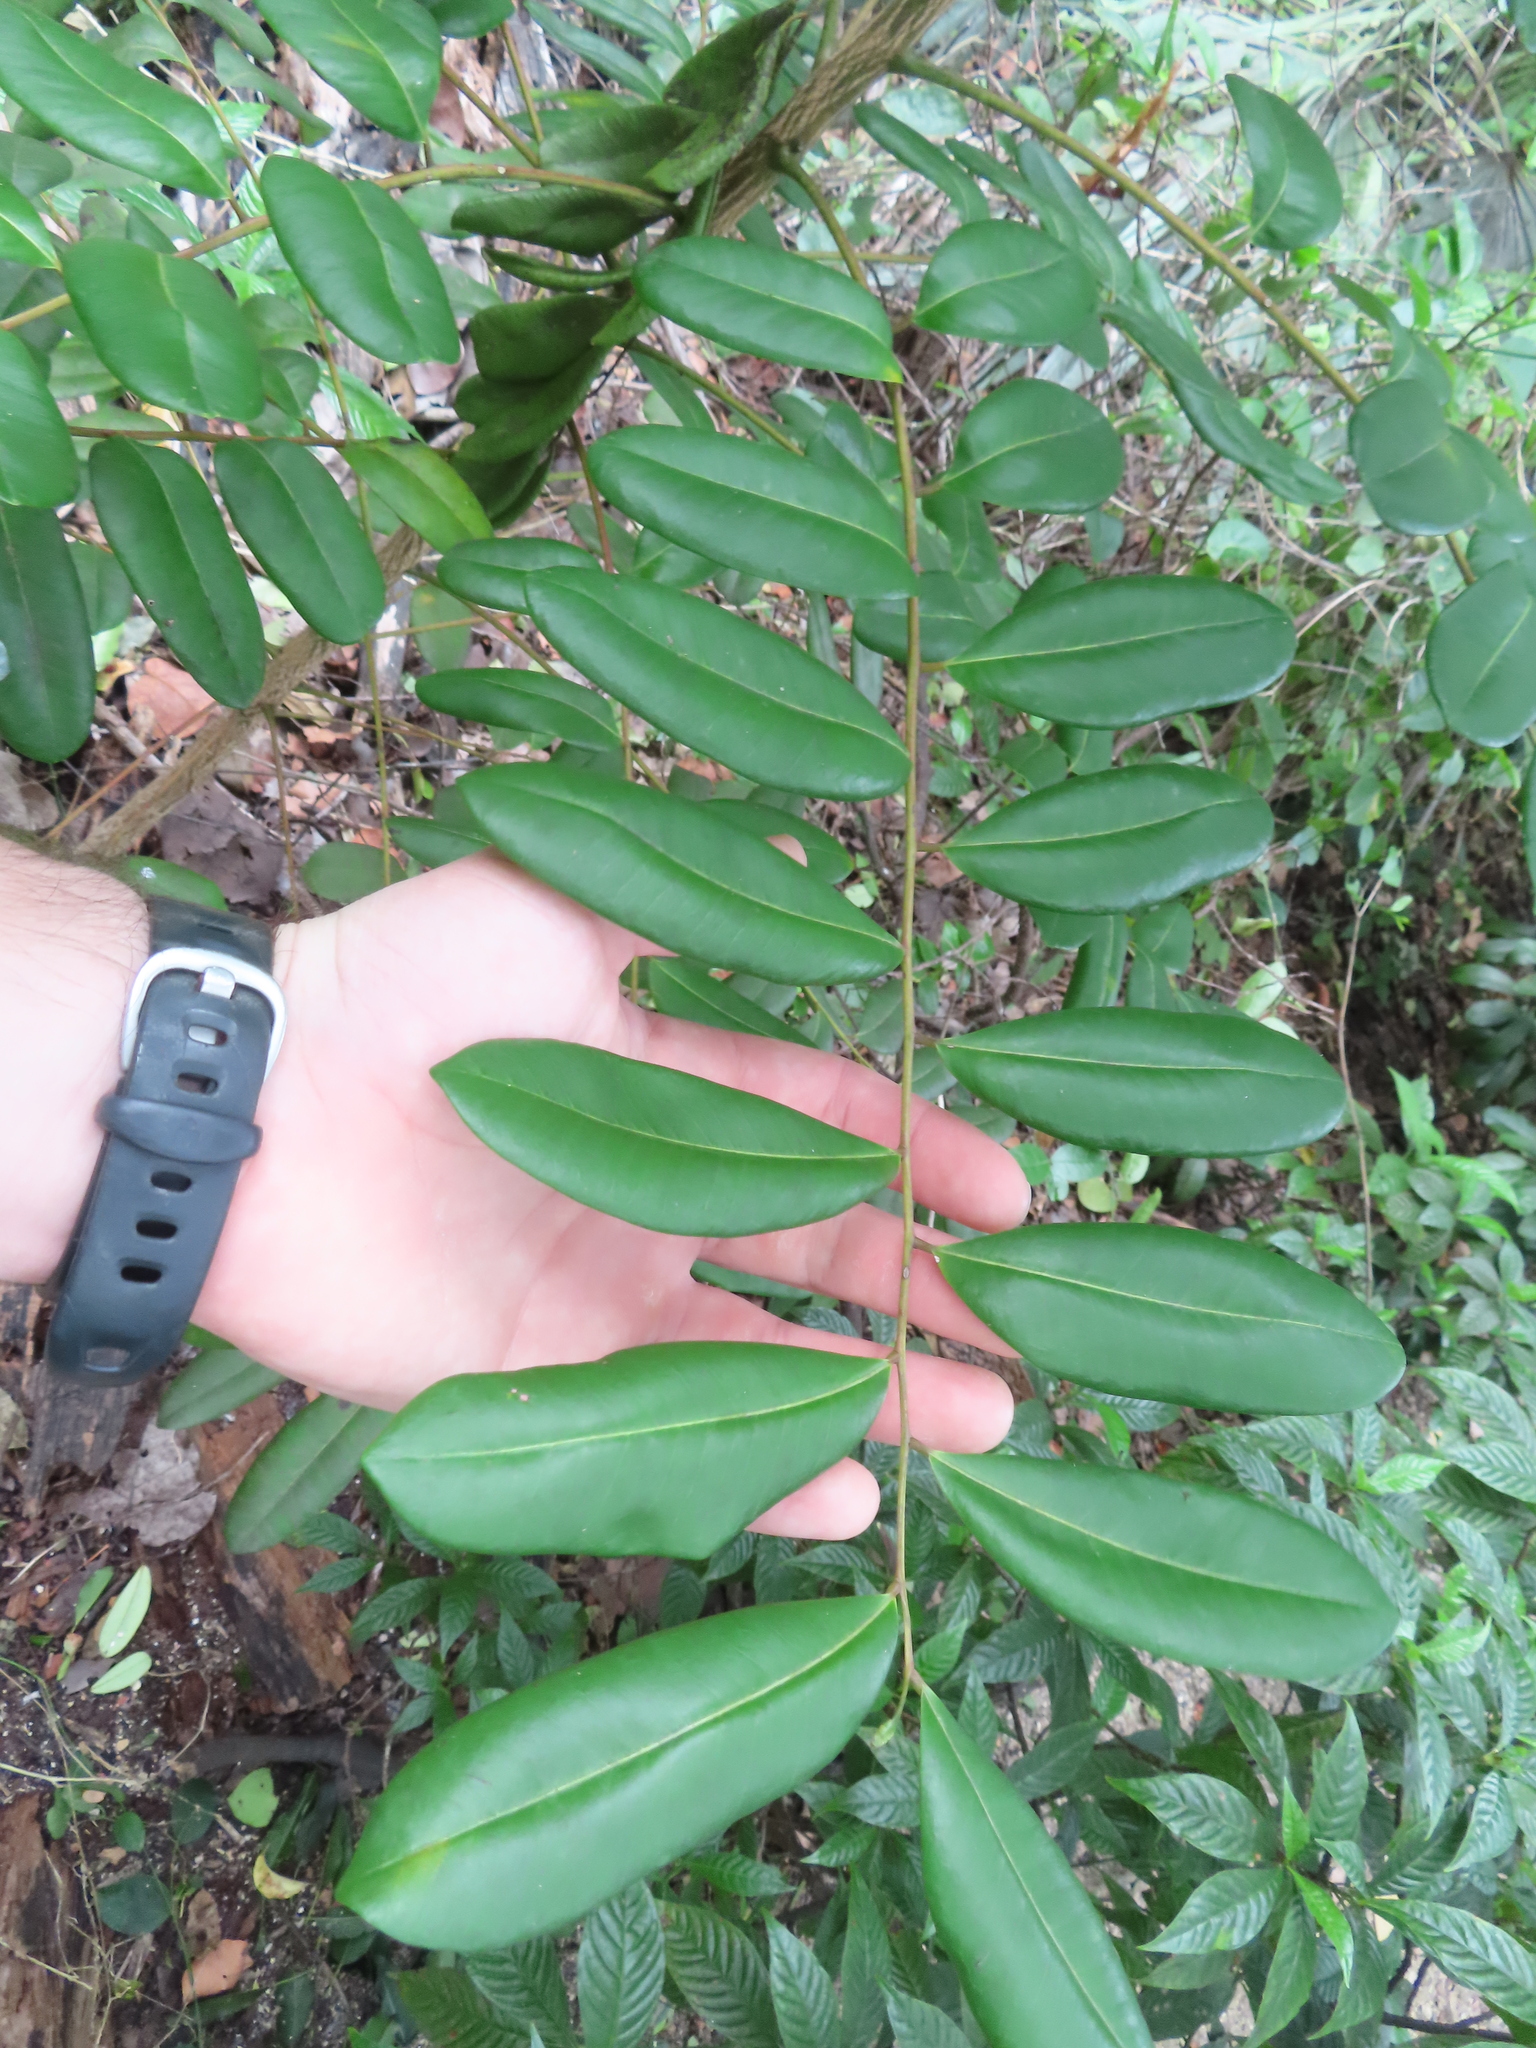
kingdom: Plantae
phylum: Tracheophyta
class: Magnoliopsida
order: Sapindales
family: Simaroubaceae
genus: Simarouba
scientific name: Simarouba glauca
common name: Dysentery-bark
